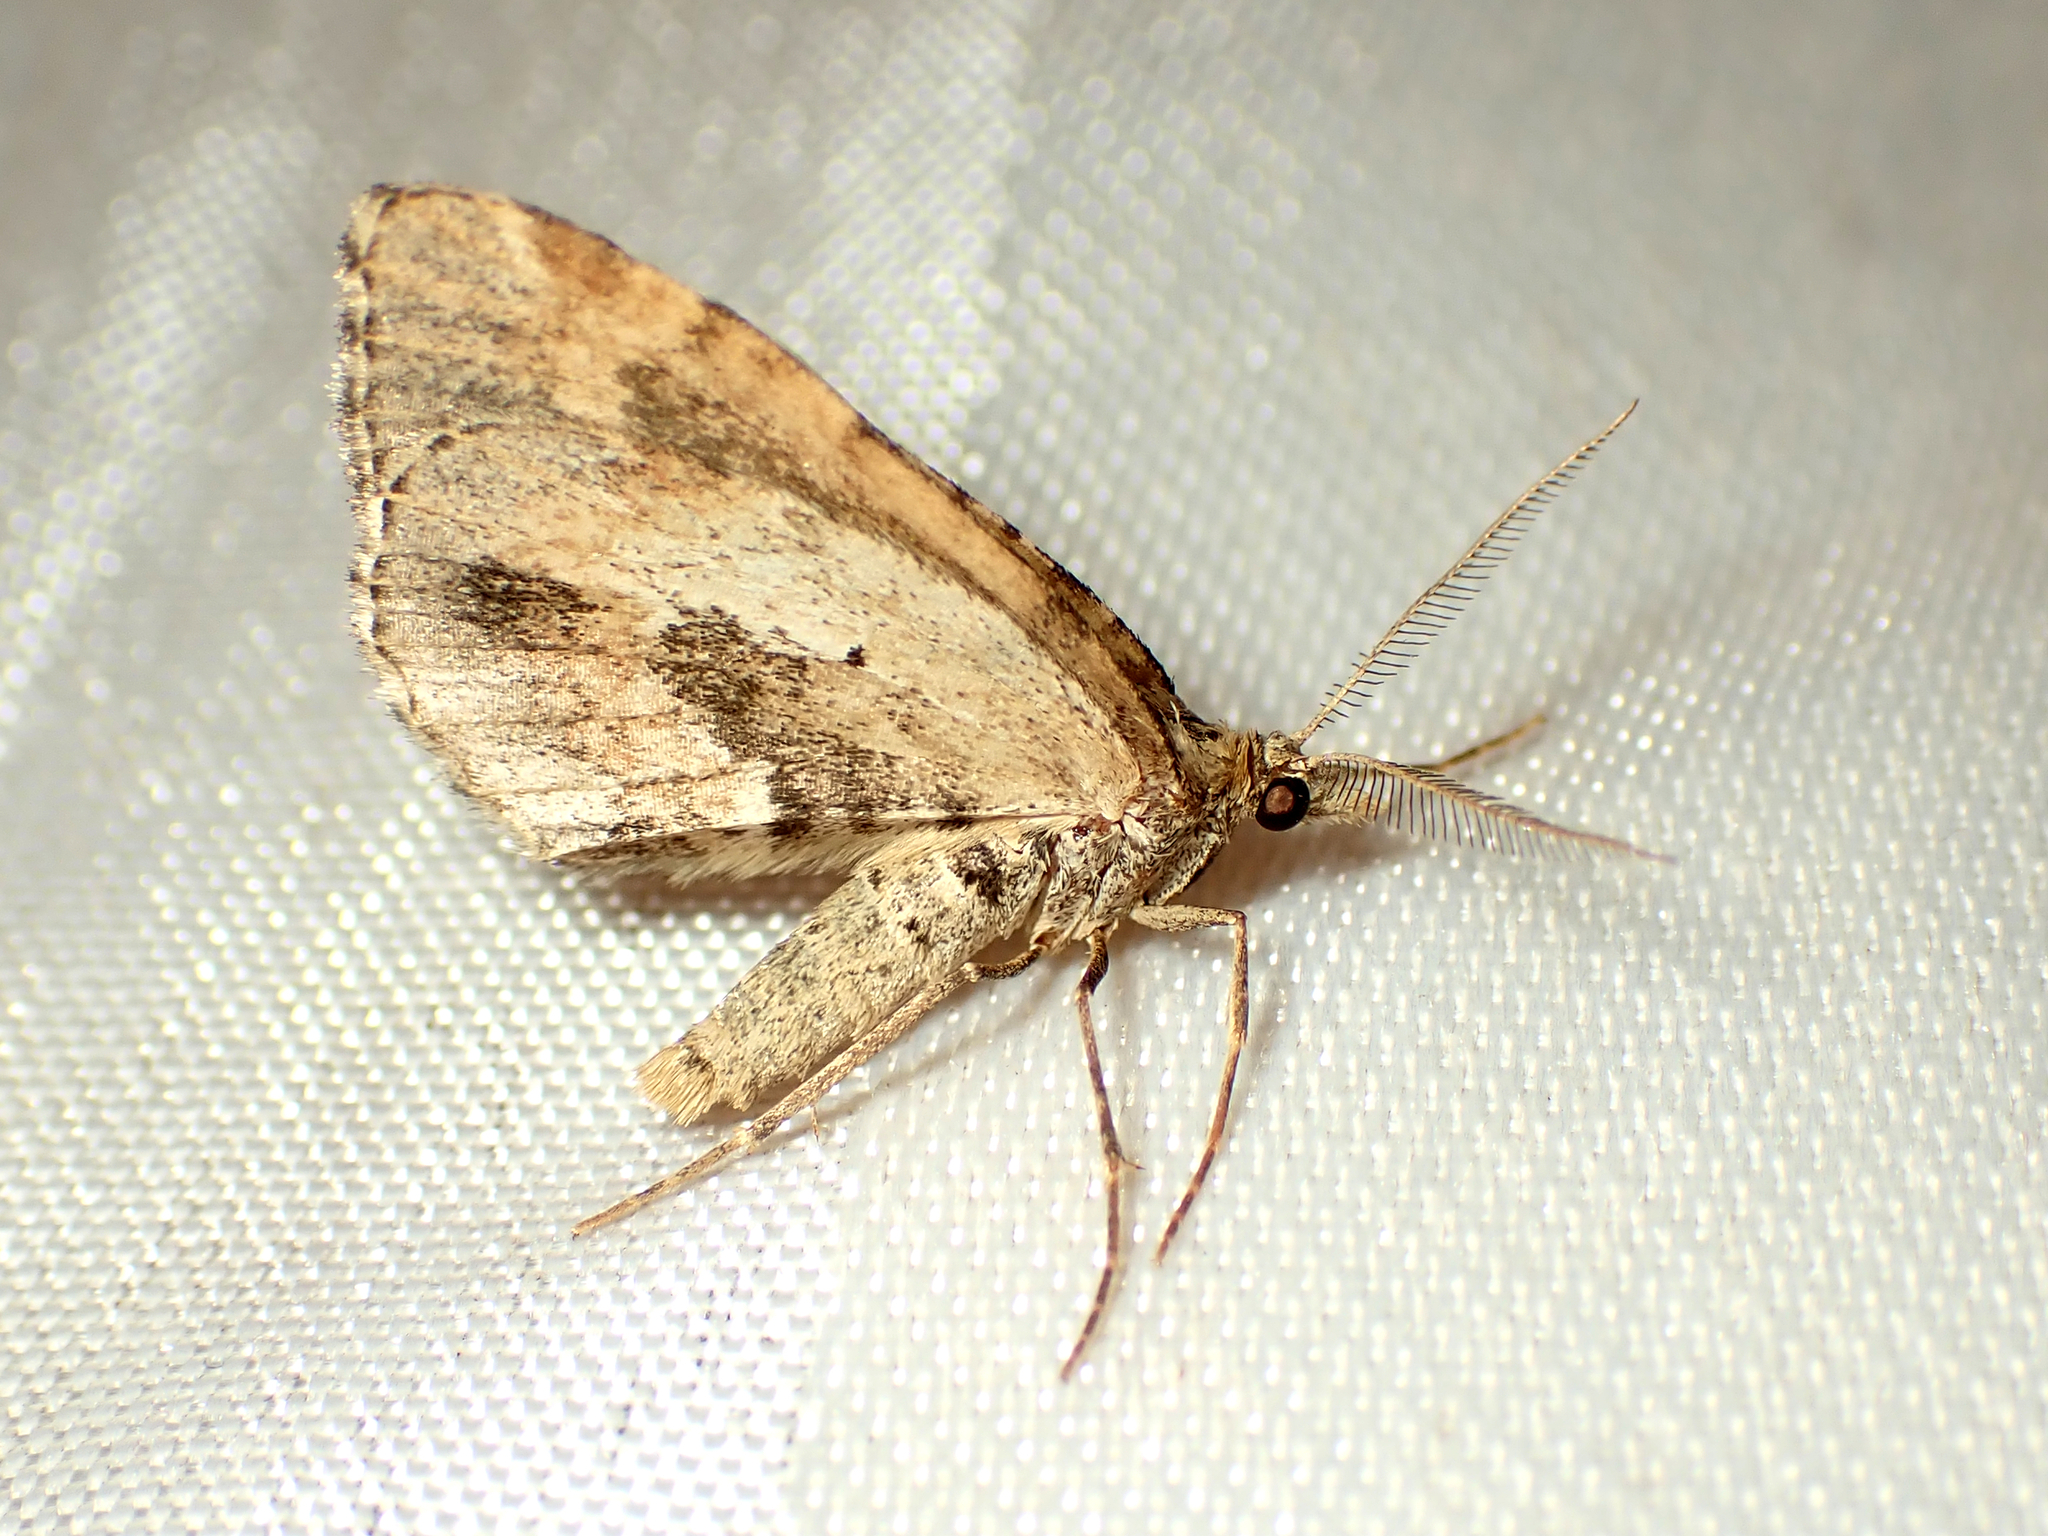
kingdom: Animalia
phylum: Arthropoda
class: Insecta
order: Lepidoptera
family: Geometridae
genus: Asaphodes
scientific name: Asaphodes aegrota
